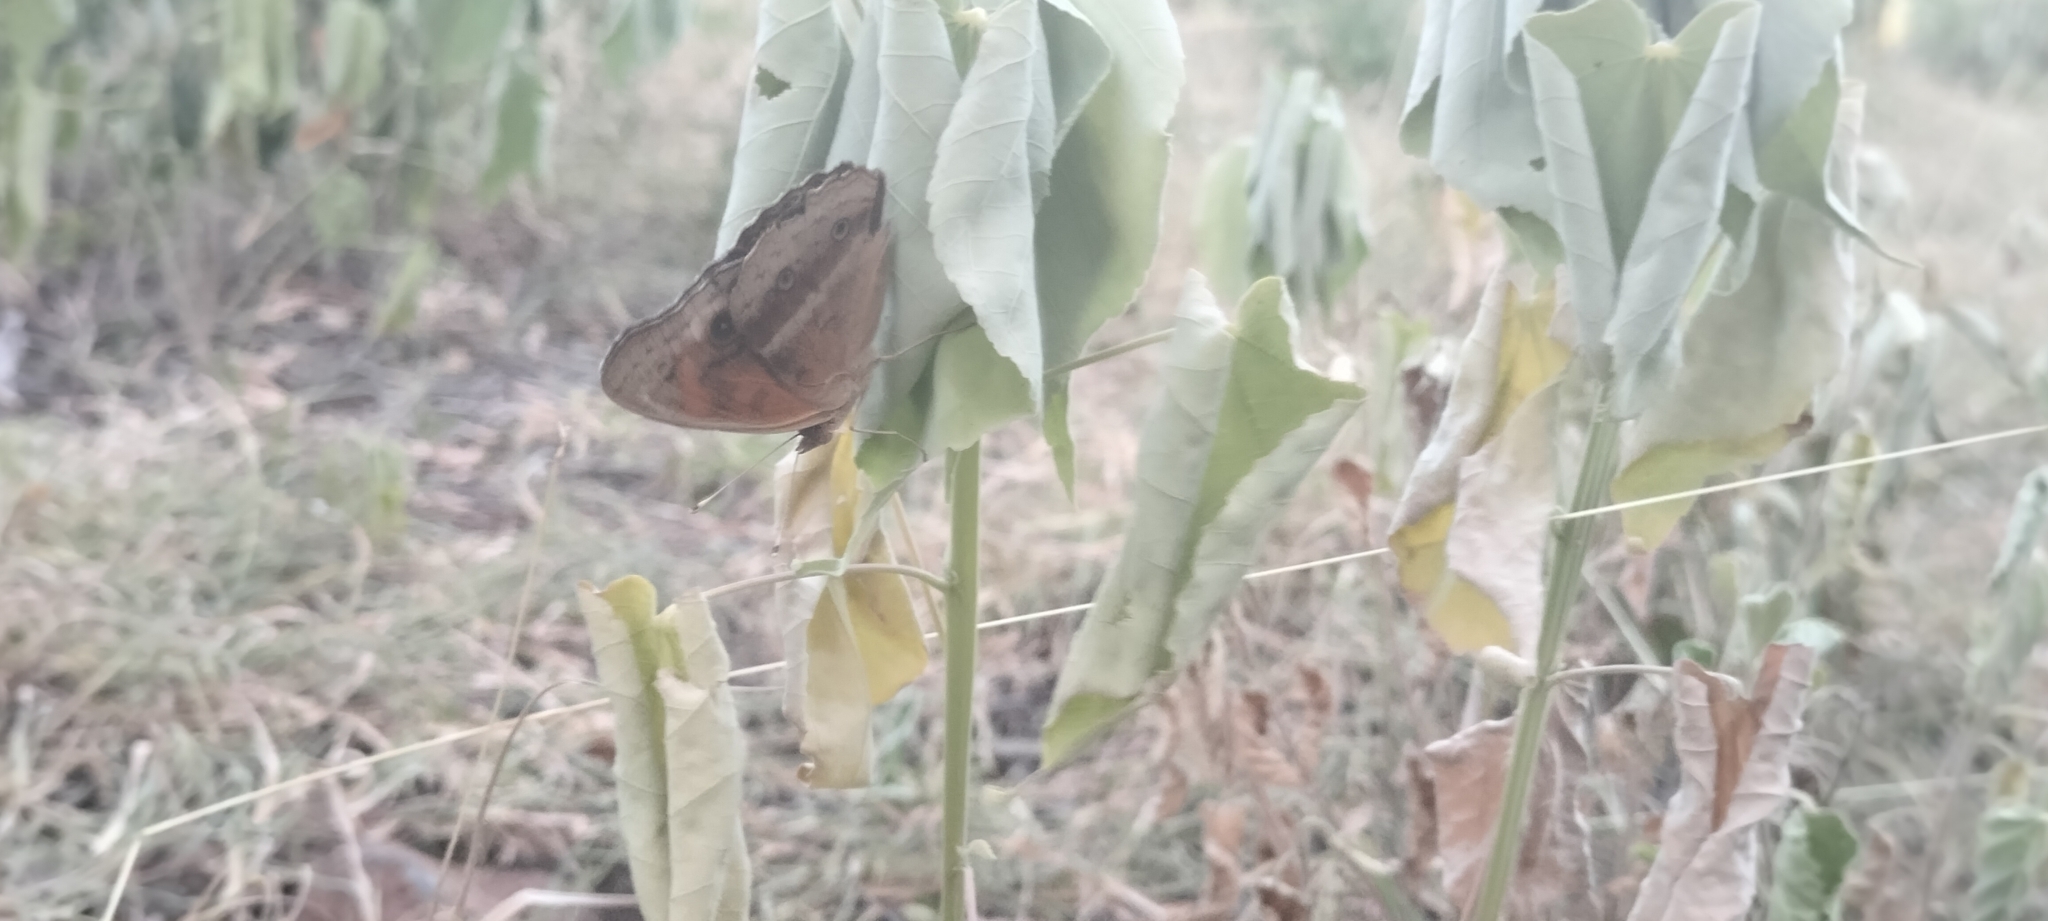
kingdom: Animalia
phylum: Arthropoda
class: Insecta
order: Lepidoptera
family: Nymphalidae
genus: Junonia
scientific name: Junonia neildi
